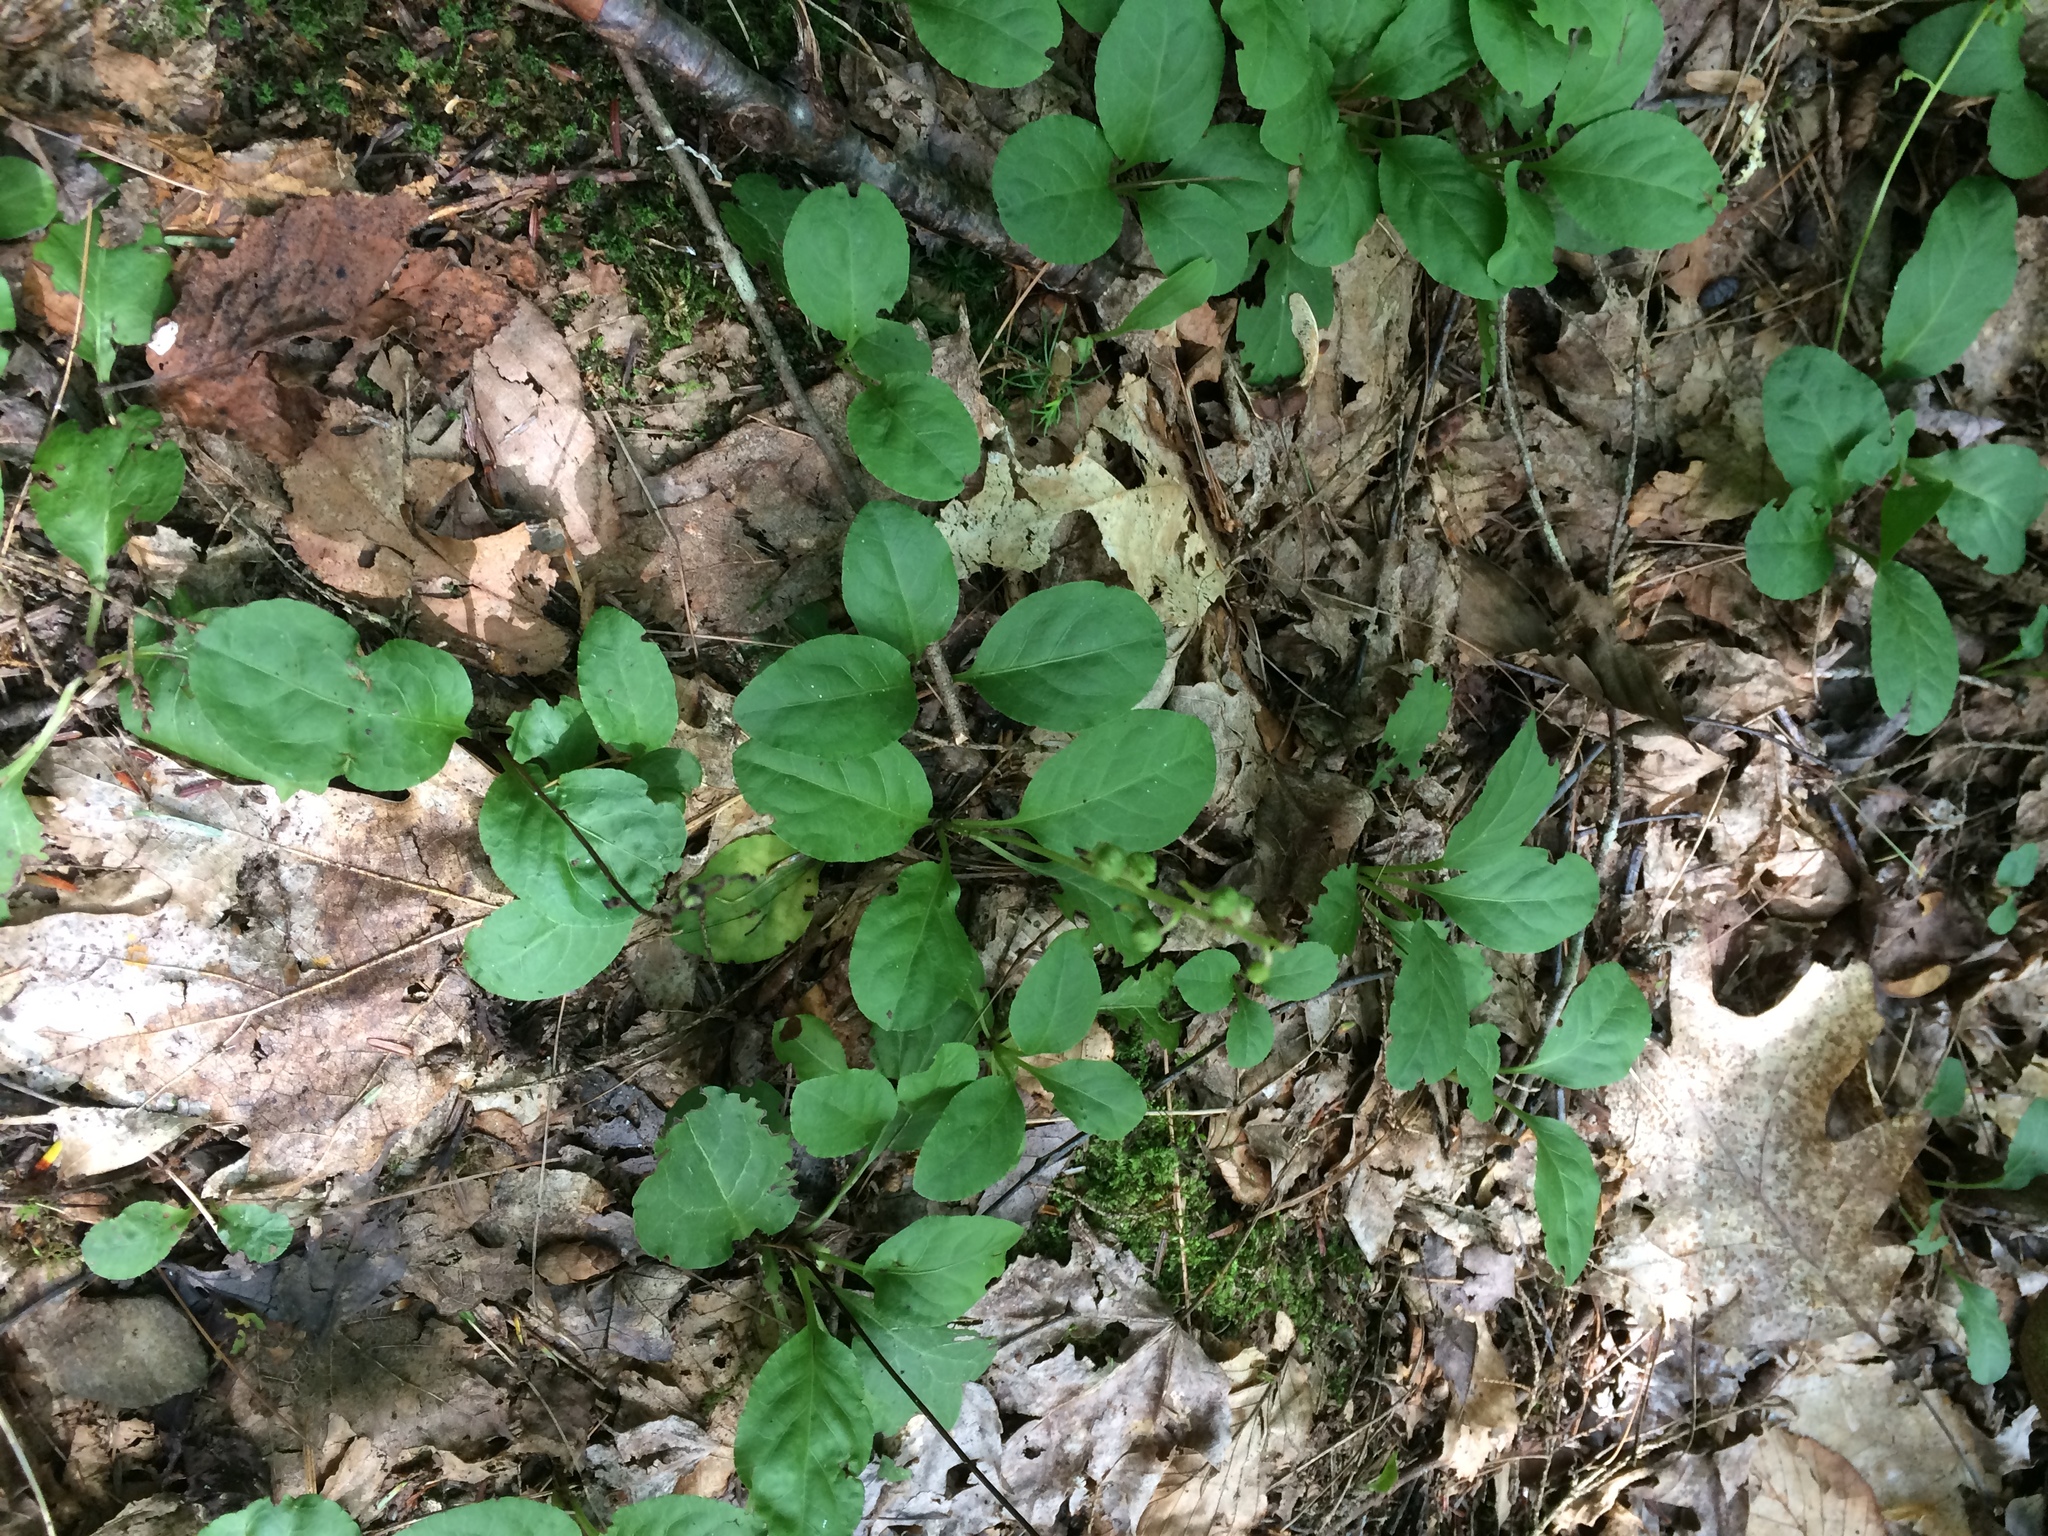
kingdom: Plantae
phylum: Tracheophyta
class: Magnoliopsida
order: Ericales
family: Ericaceae
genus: Pyrola
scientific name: Pyrola elliptica
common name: Shinleaf
